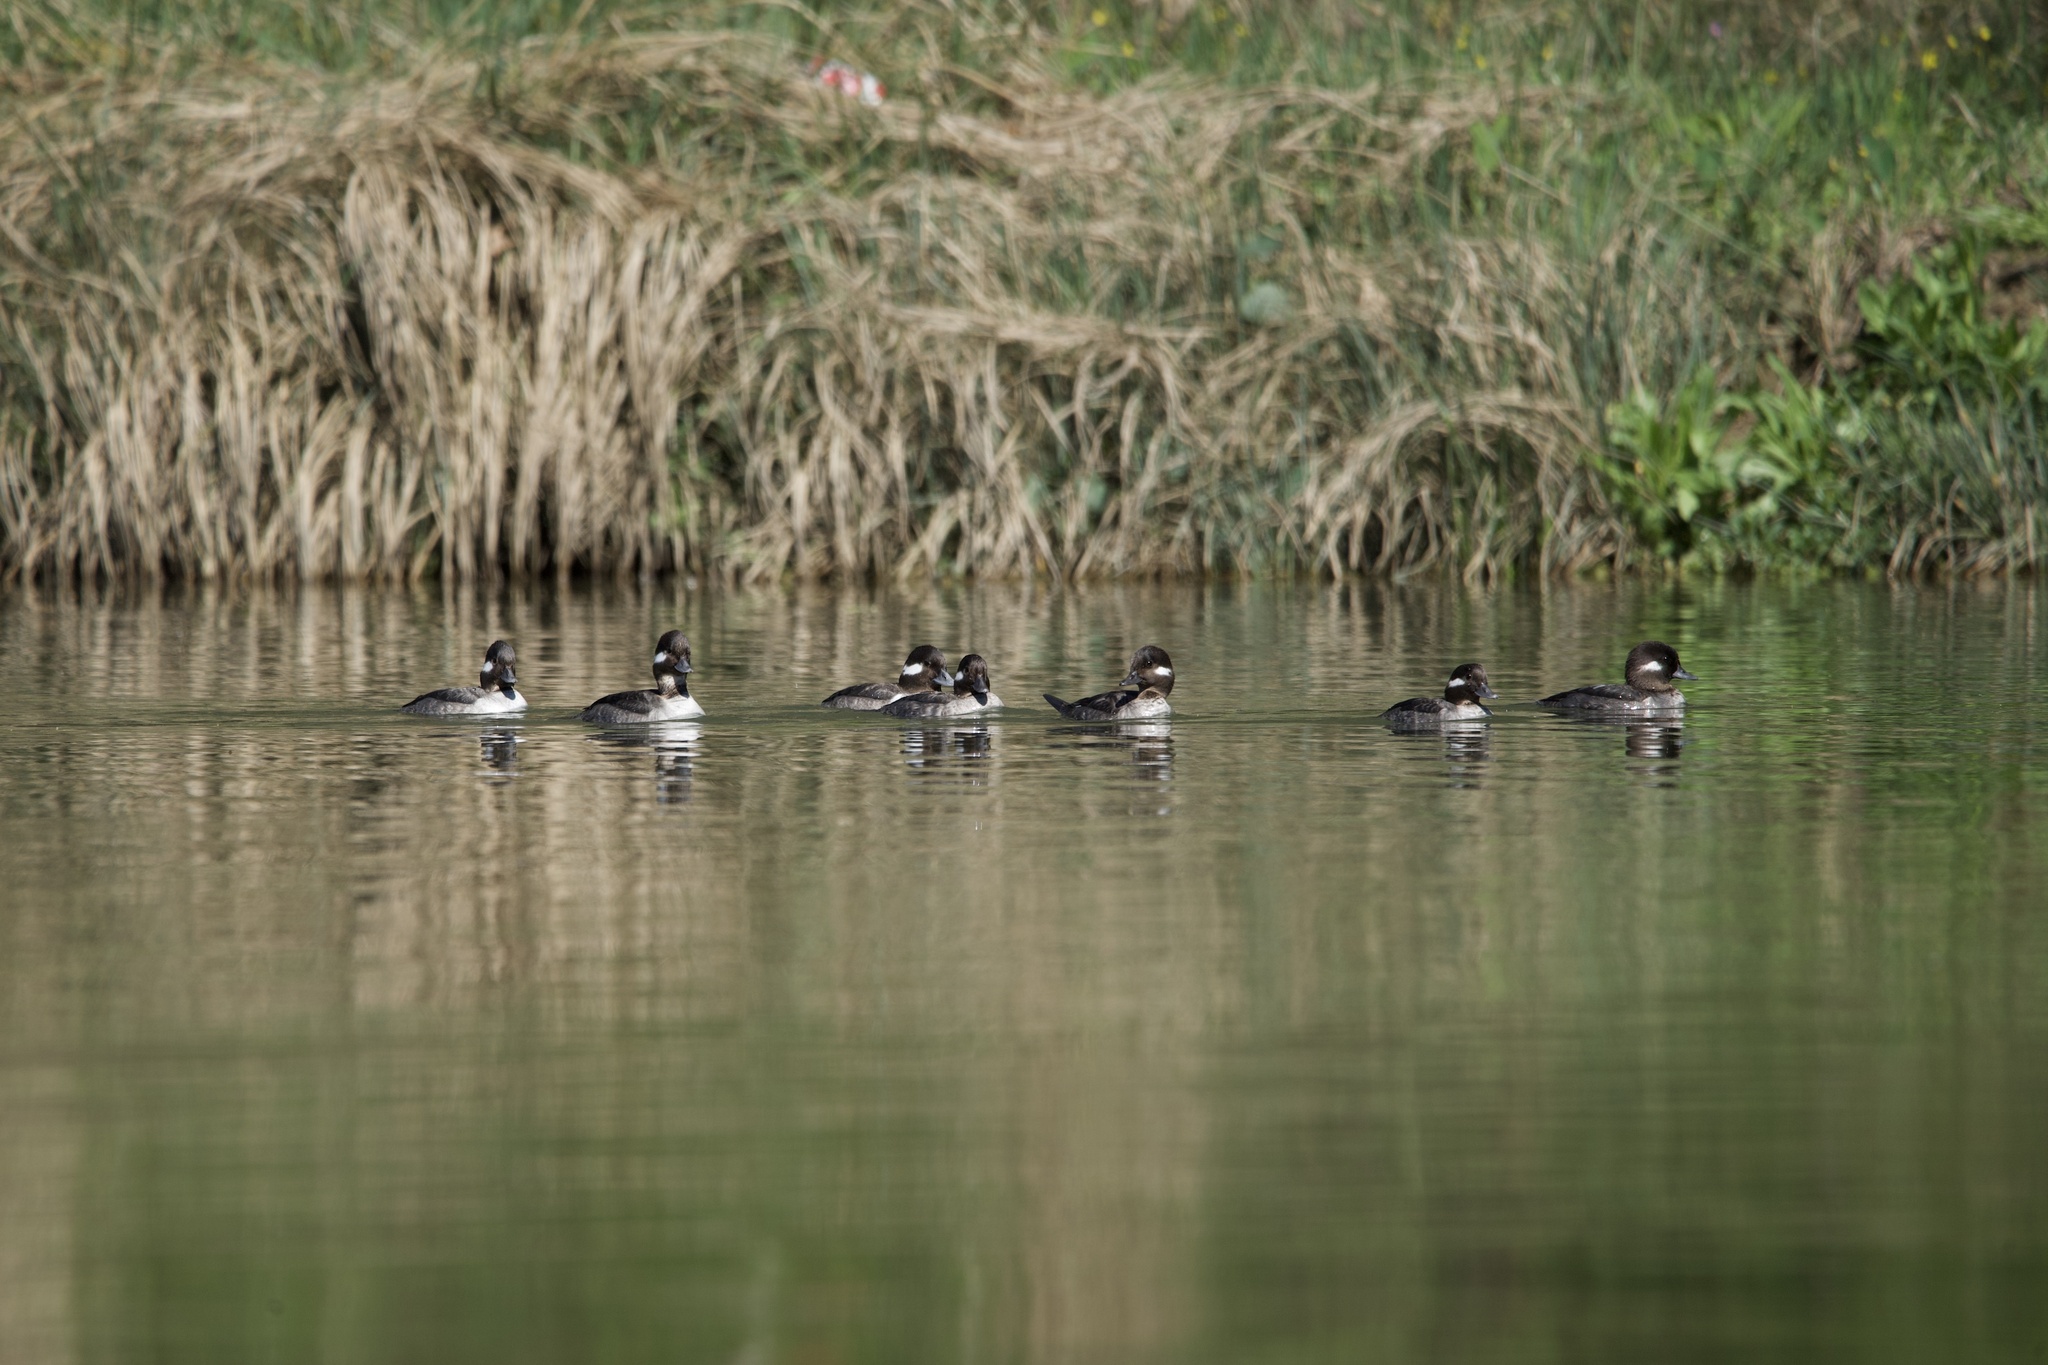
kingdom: Animalia
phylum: Chordata
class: Aves
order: Anseriformes
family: Anatidae
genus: Bucephala
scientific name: Bucephala albeola
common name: Bufflehead
